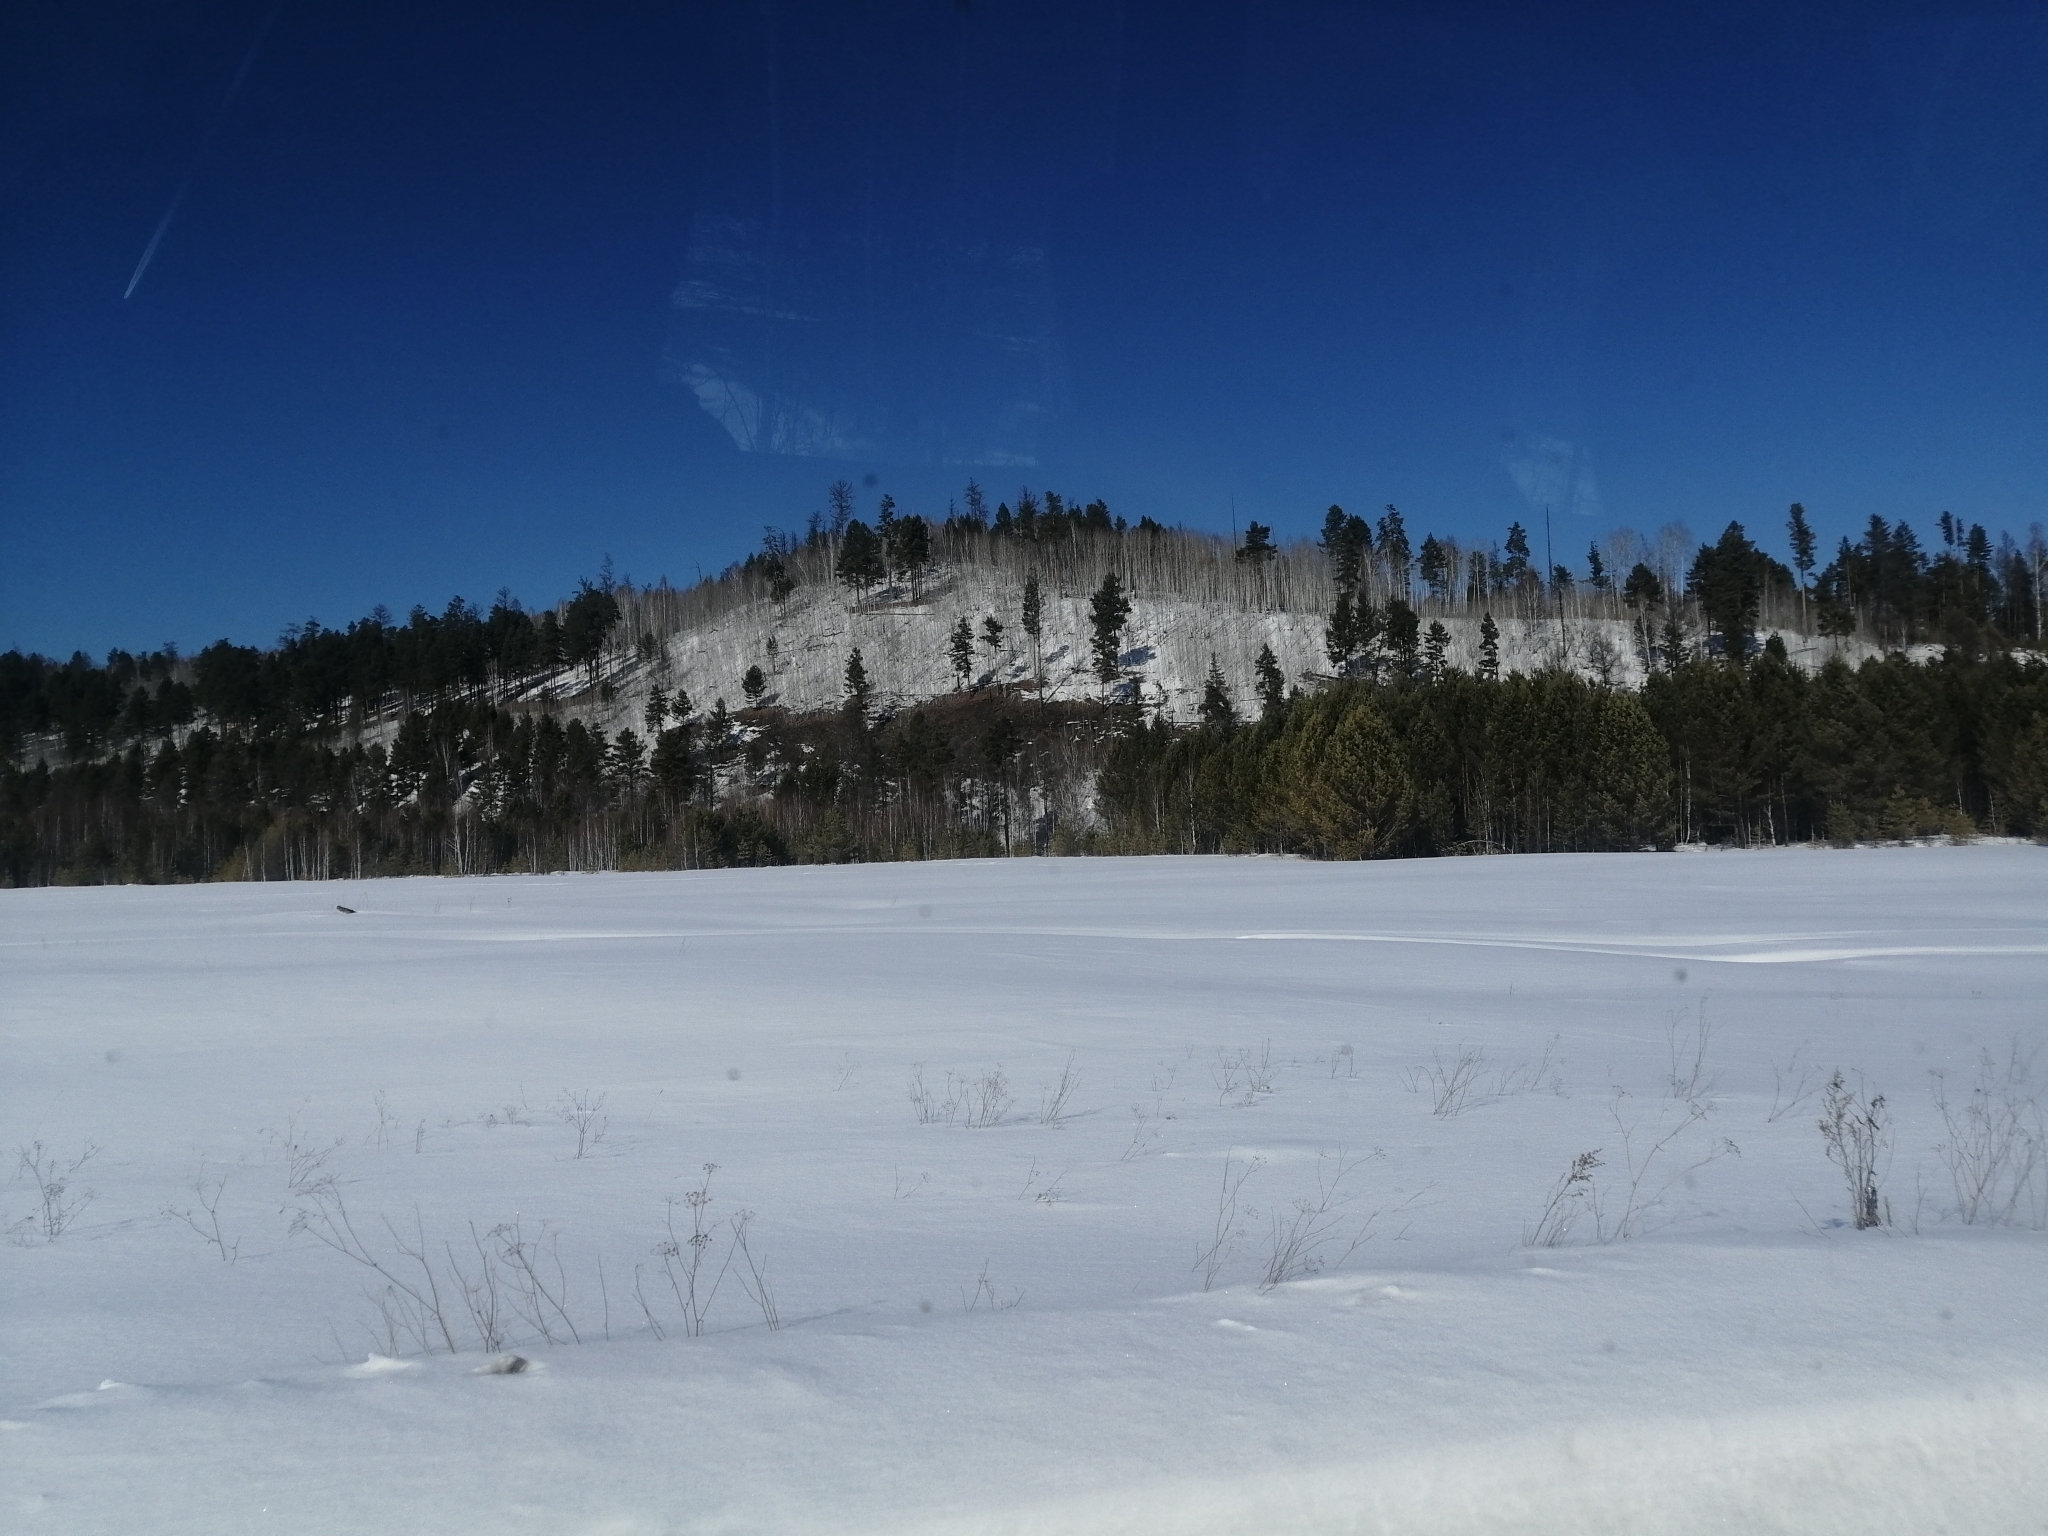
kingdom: Plantae
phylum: Tracheophyta
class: Pinopsida
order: Pinales
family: Pinaceae
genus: Pinus
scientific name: Pinus sylvestris
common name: Scots pine
